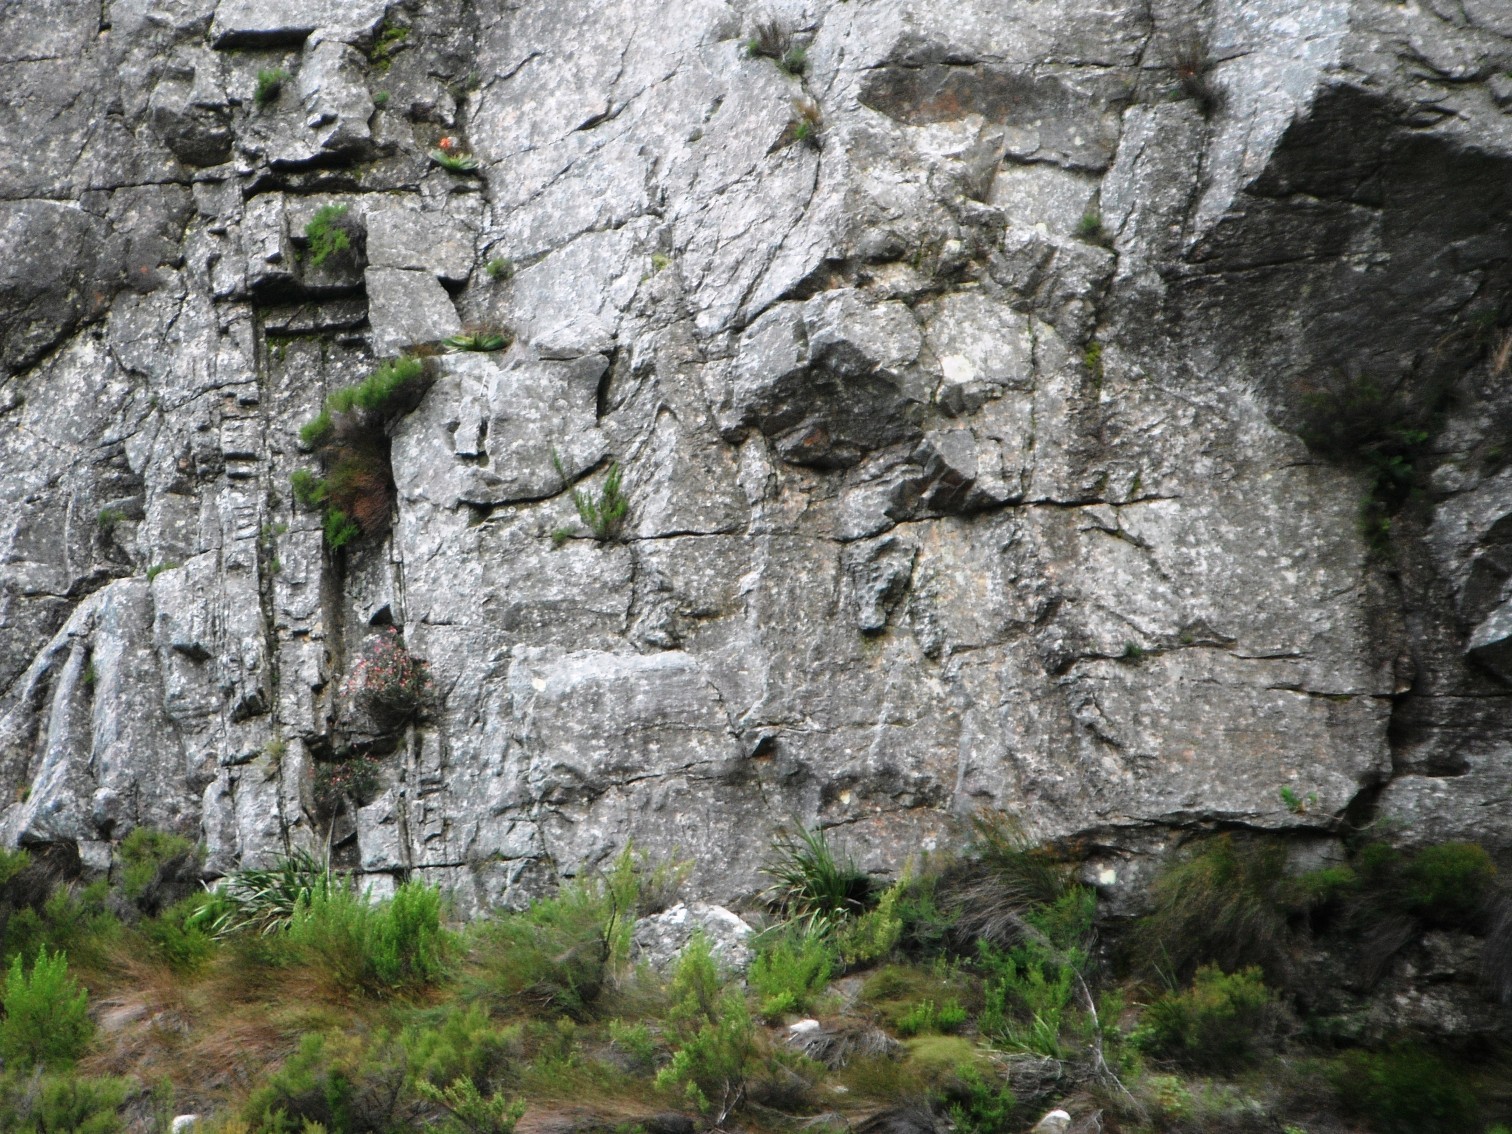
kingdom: Plantae
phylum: Tracheophyta
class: Liliopsida
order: Asparagales
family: Asphodelaceae
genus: Kumara
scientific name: Kumara haemanthifolia
